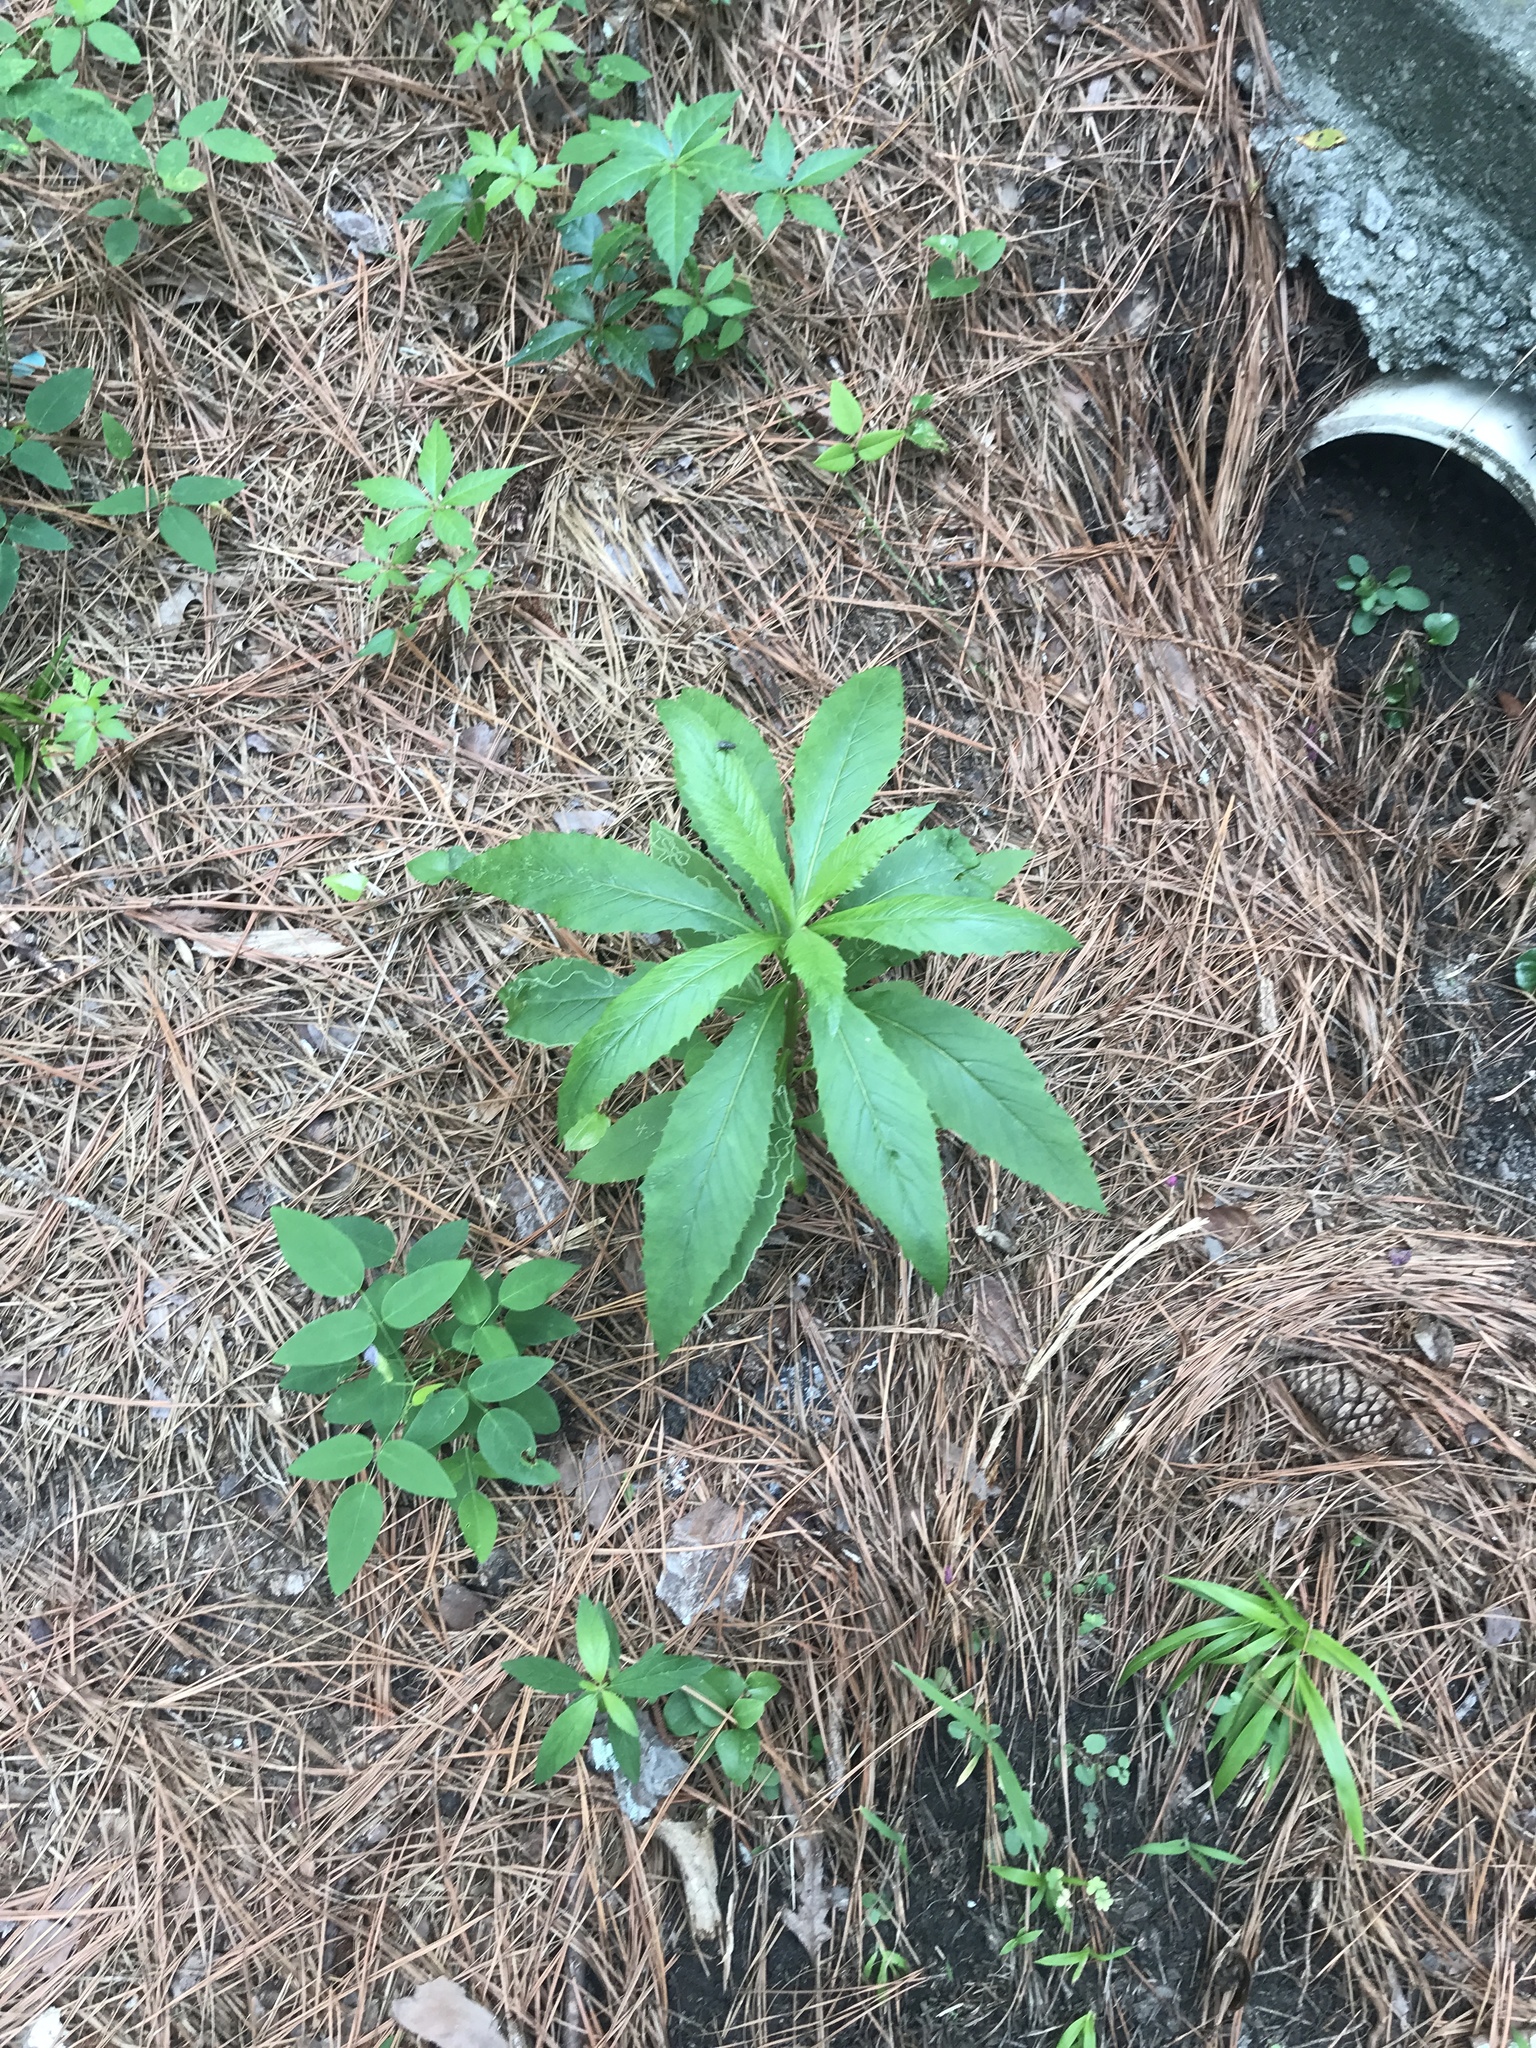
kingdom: Animalia
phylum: Arthropoda
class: Insecta
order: Lepidoptera
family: Gracillariidae
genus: Phyllocnistis
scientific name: Phyllocnistis insignis
